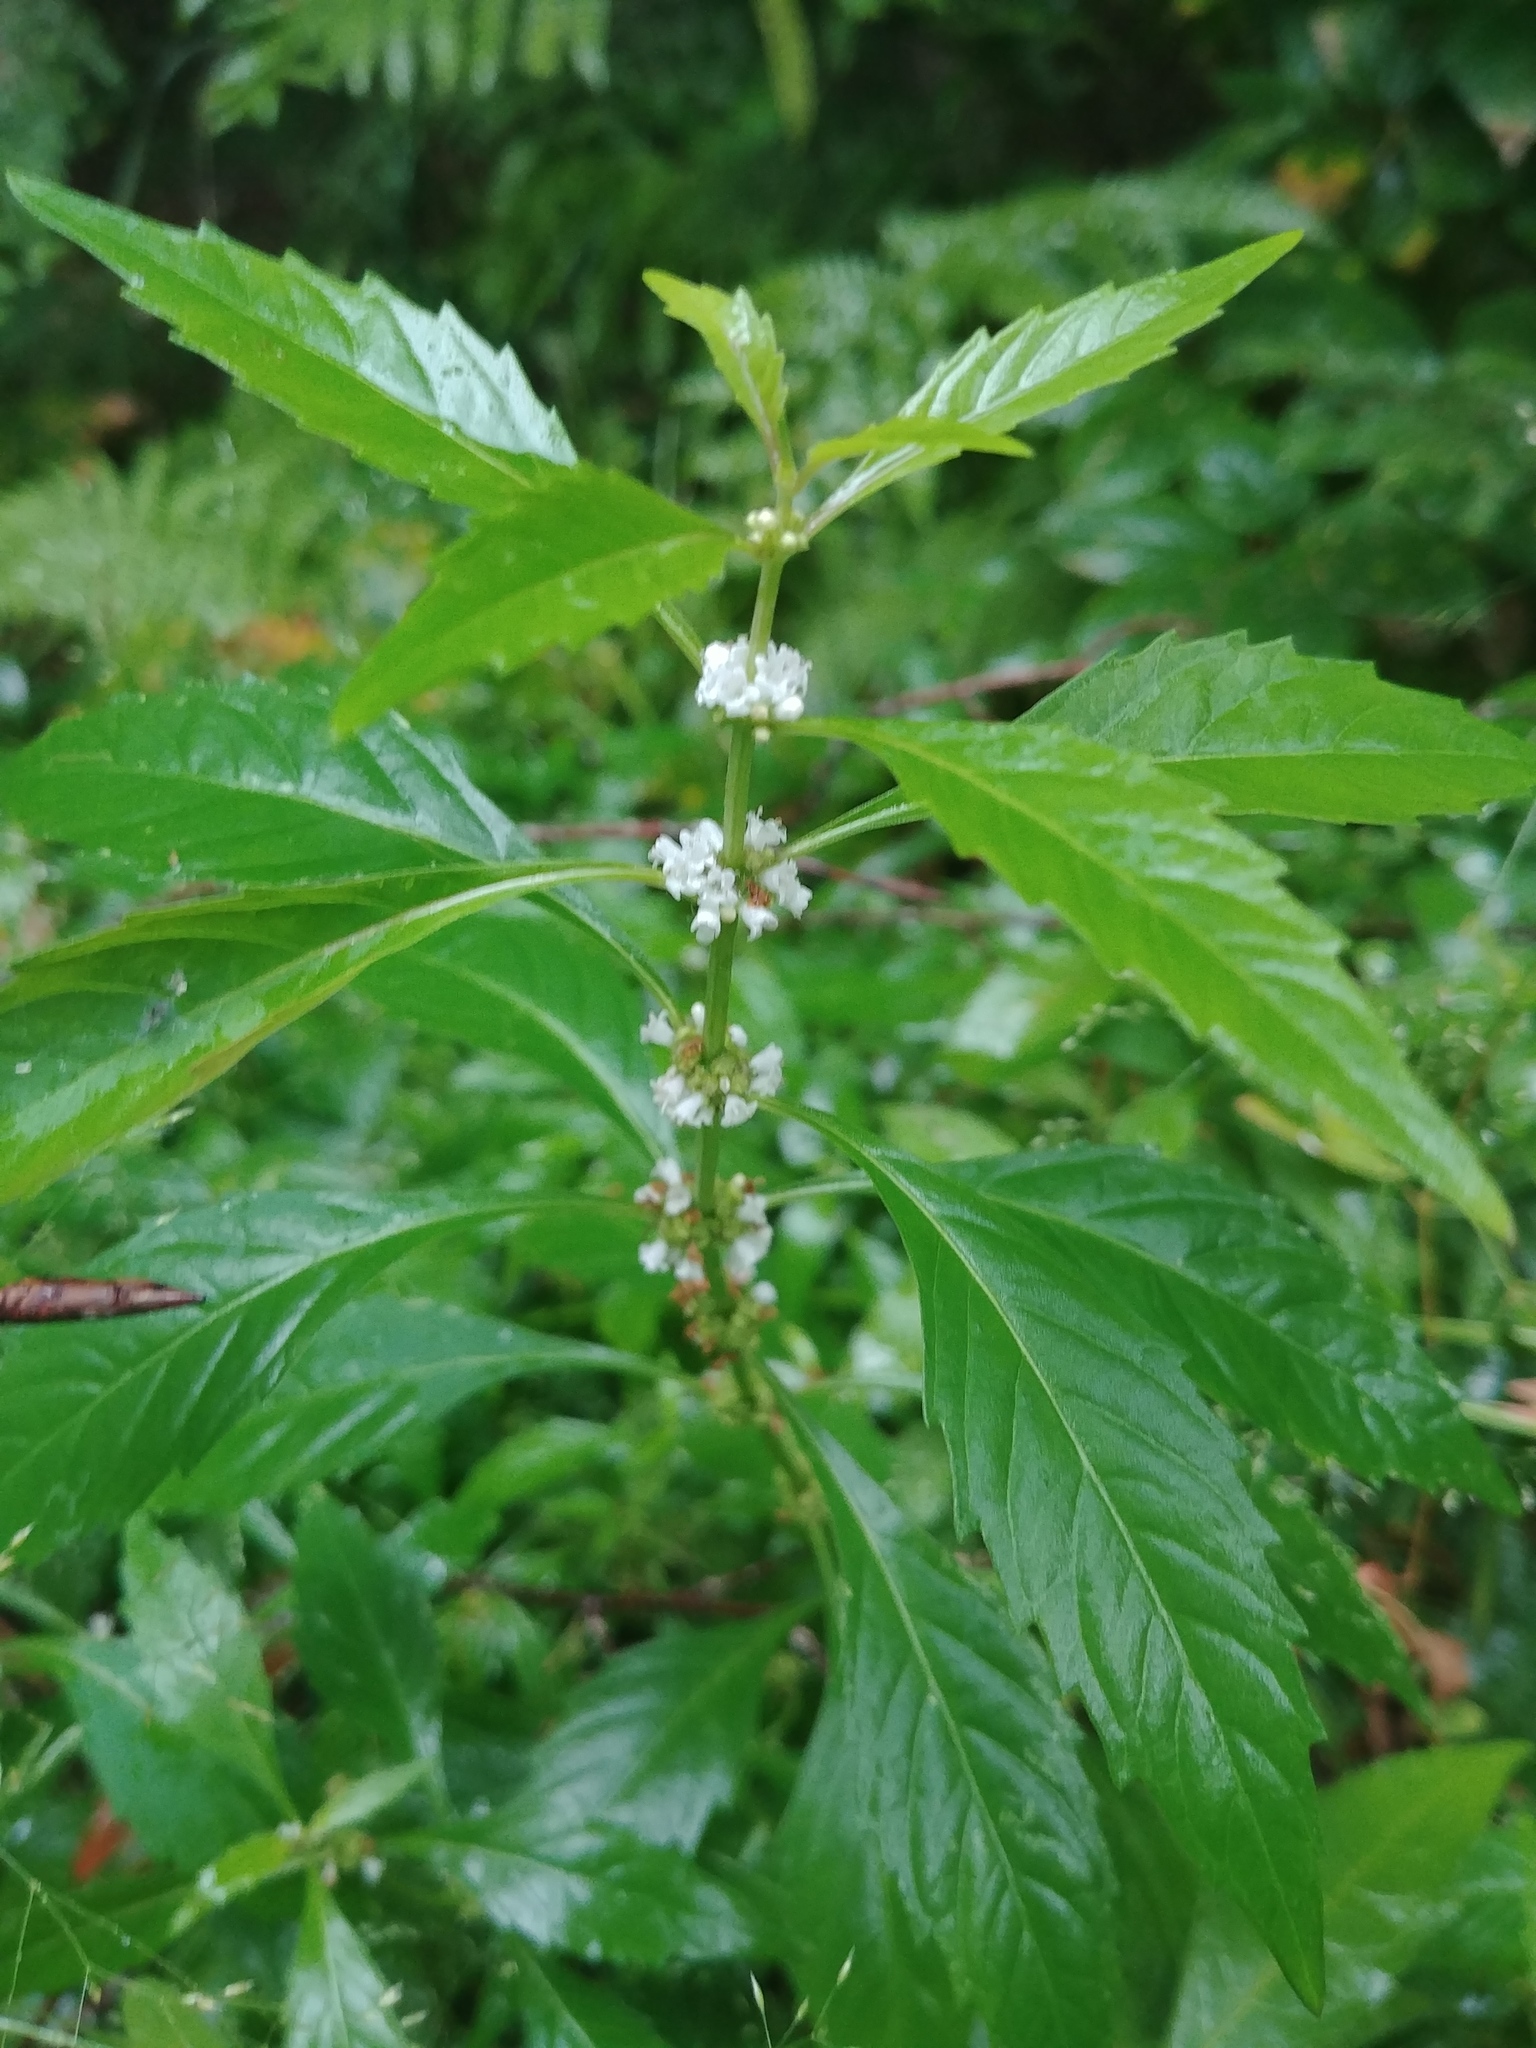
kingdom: Plantae
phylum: Tracheophyta
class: Magnoliopsida
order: Lamiales
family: Lamiaceae
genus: Lycopus
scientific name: Lycopus uniflorus
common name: Northern bugleweed
